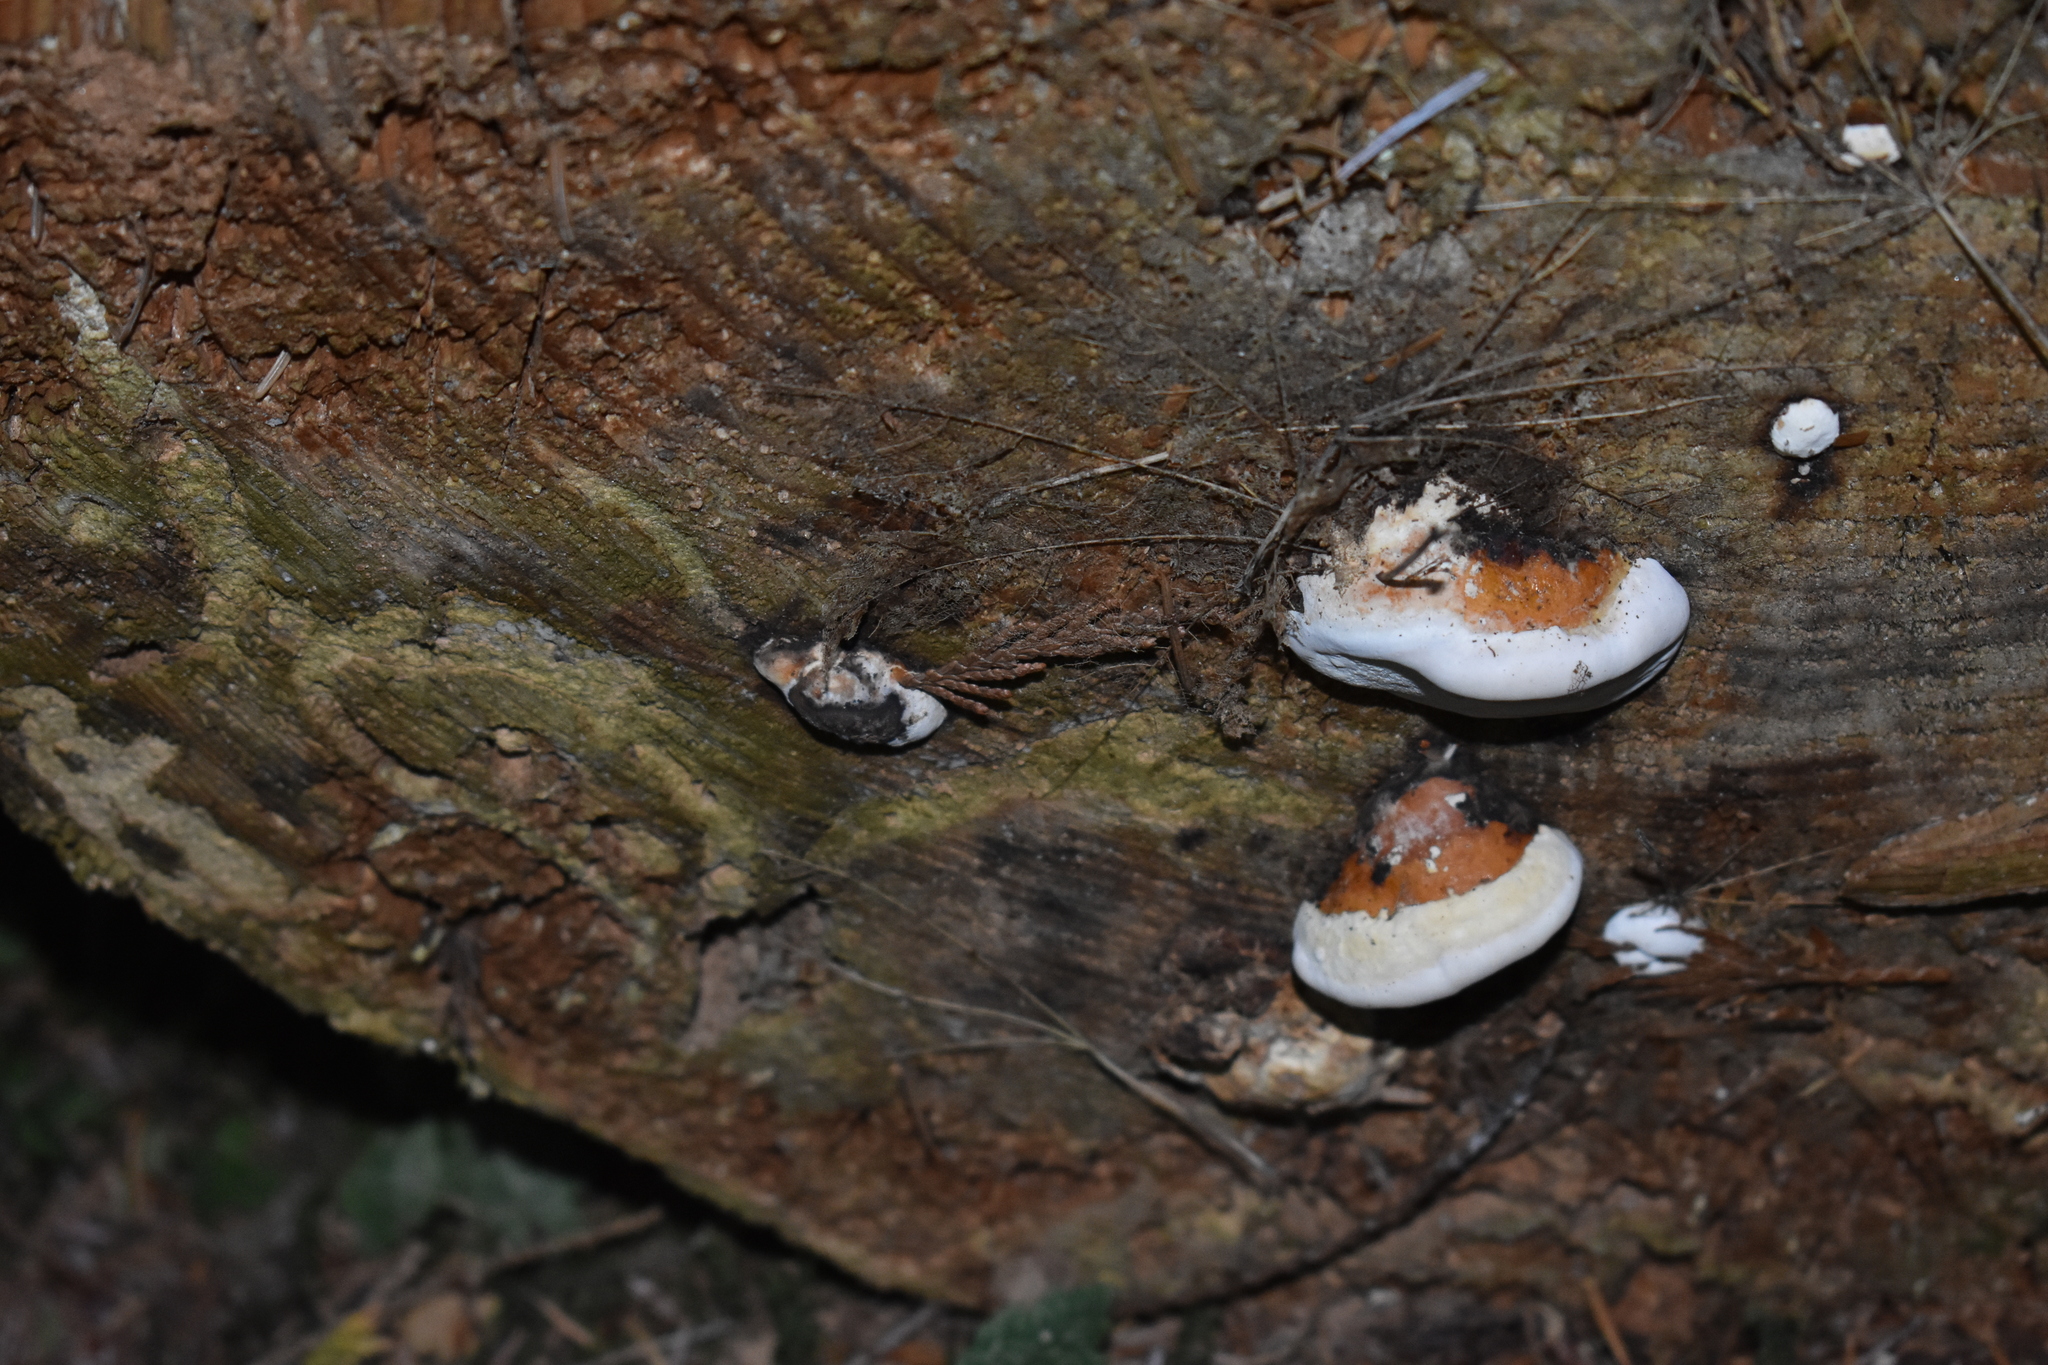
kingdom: Fungi
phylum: Basidiomycota
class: Agaricomycetes
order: Polyporales
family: Fomitopsidaceae
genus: Fomitopsis
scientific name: Fomitopsis mounceae
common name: Northern red belt
